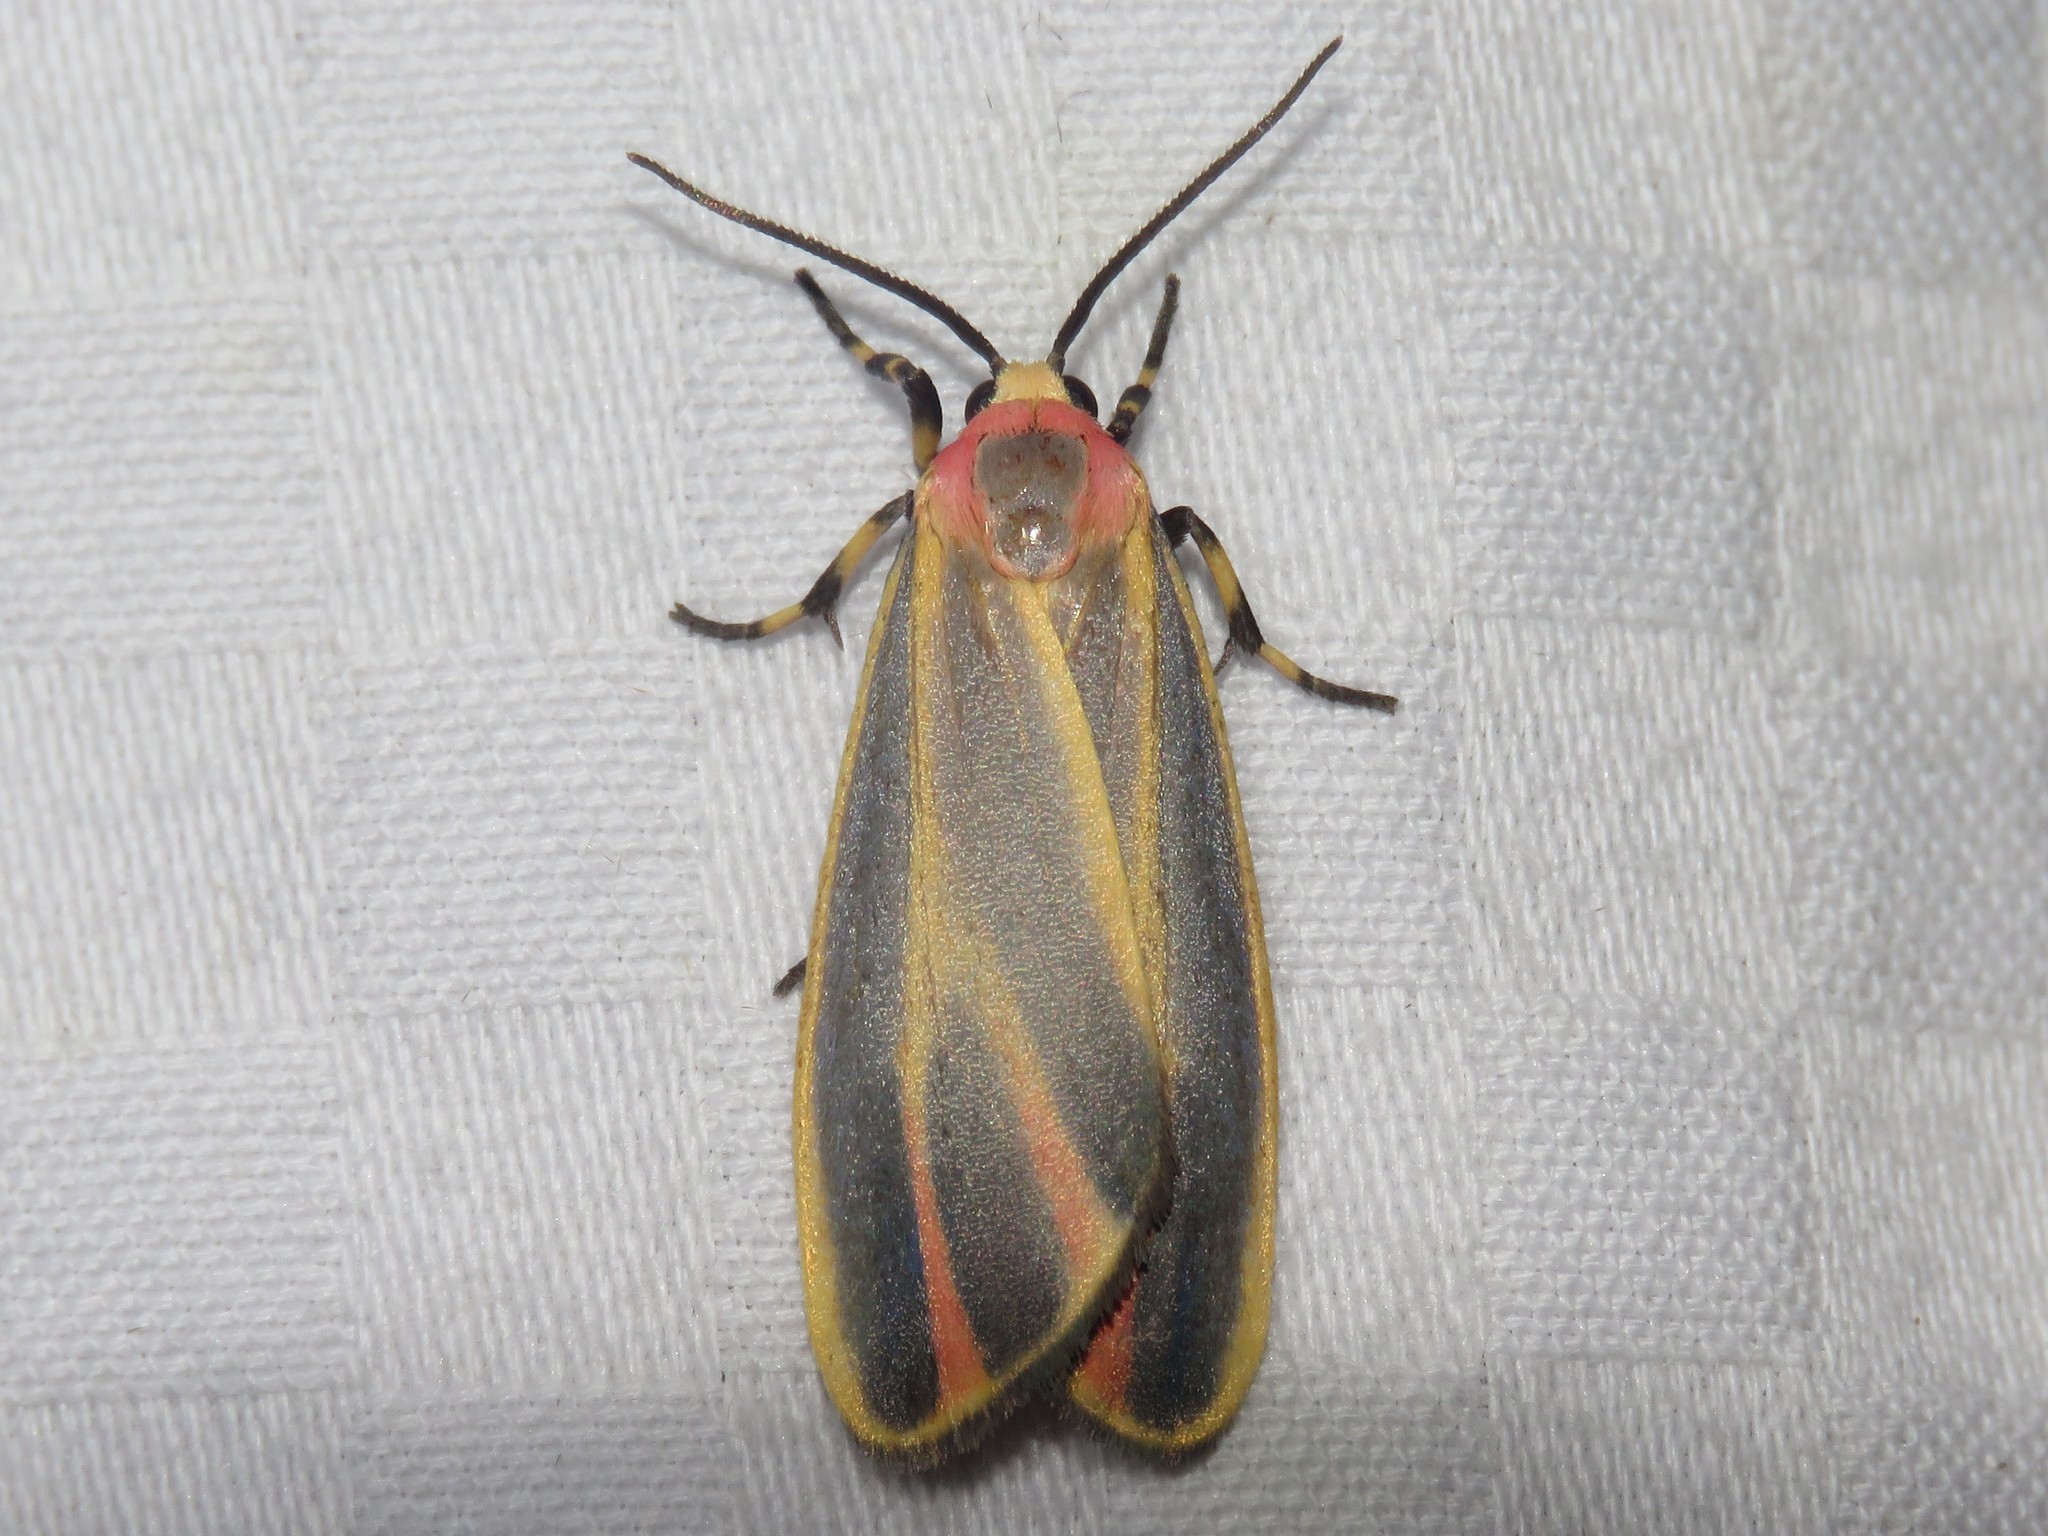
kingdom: Animalia
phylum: Arthropoda
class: Insecta
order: Lepidoptera
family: Erebidae
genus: Hypoprepia
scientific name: Hypoprepia fucosa
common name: Painted lichen moth
